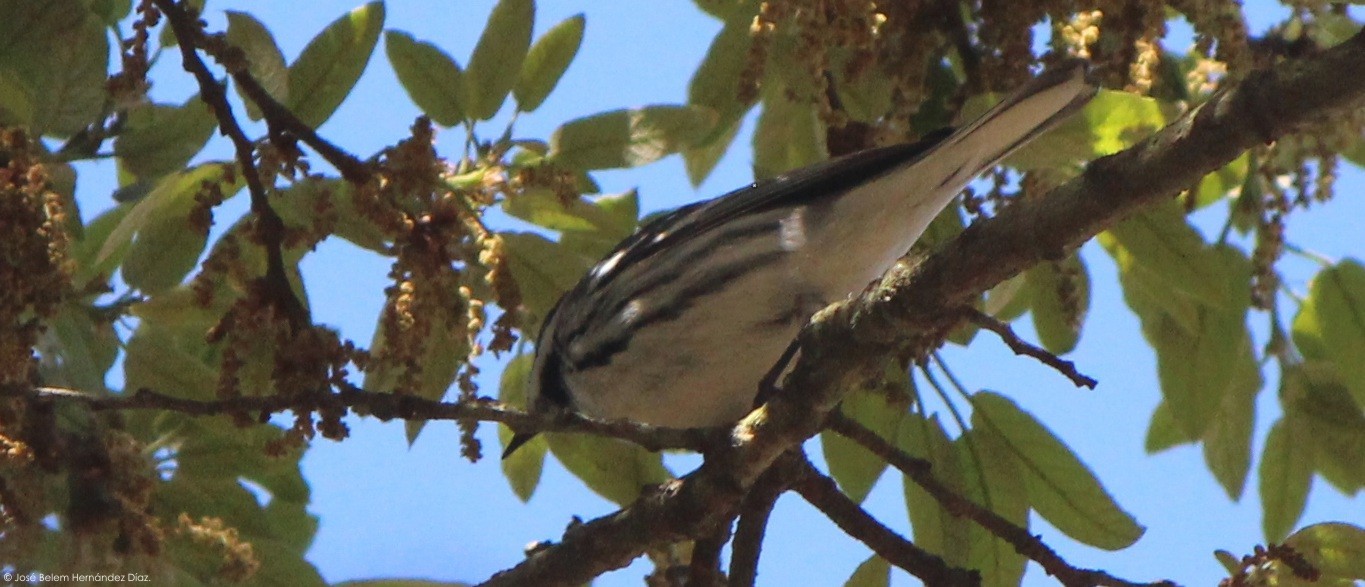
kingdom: Animalia
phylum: Chordata
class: Aves
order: Passeriformes
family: Parulidae
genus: Setophaga
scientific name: Setophaga nigrescens
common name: Black-throated gray warbler
